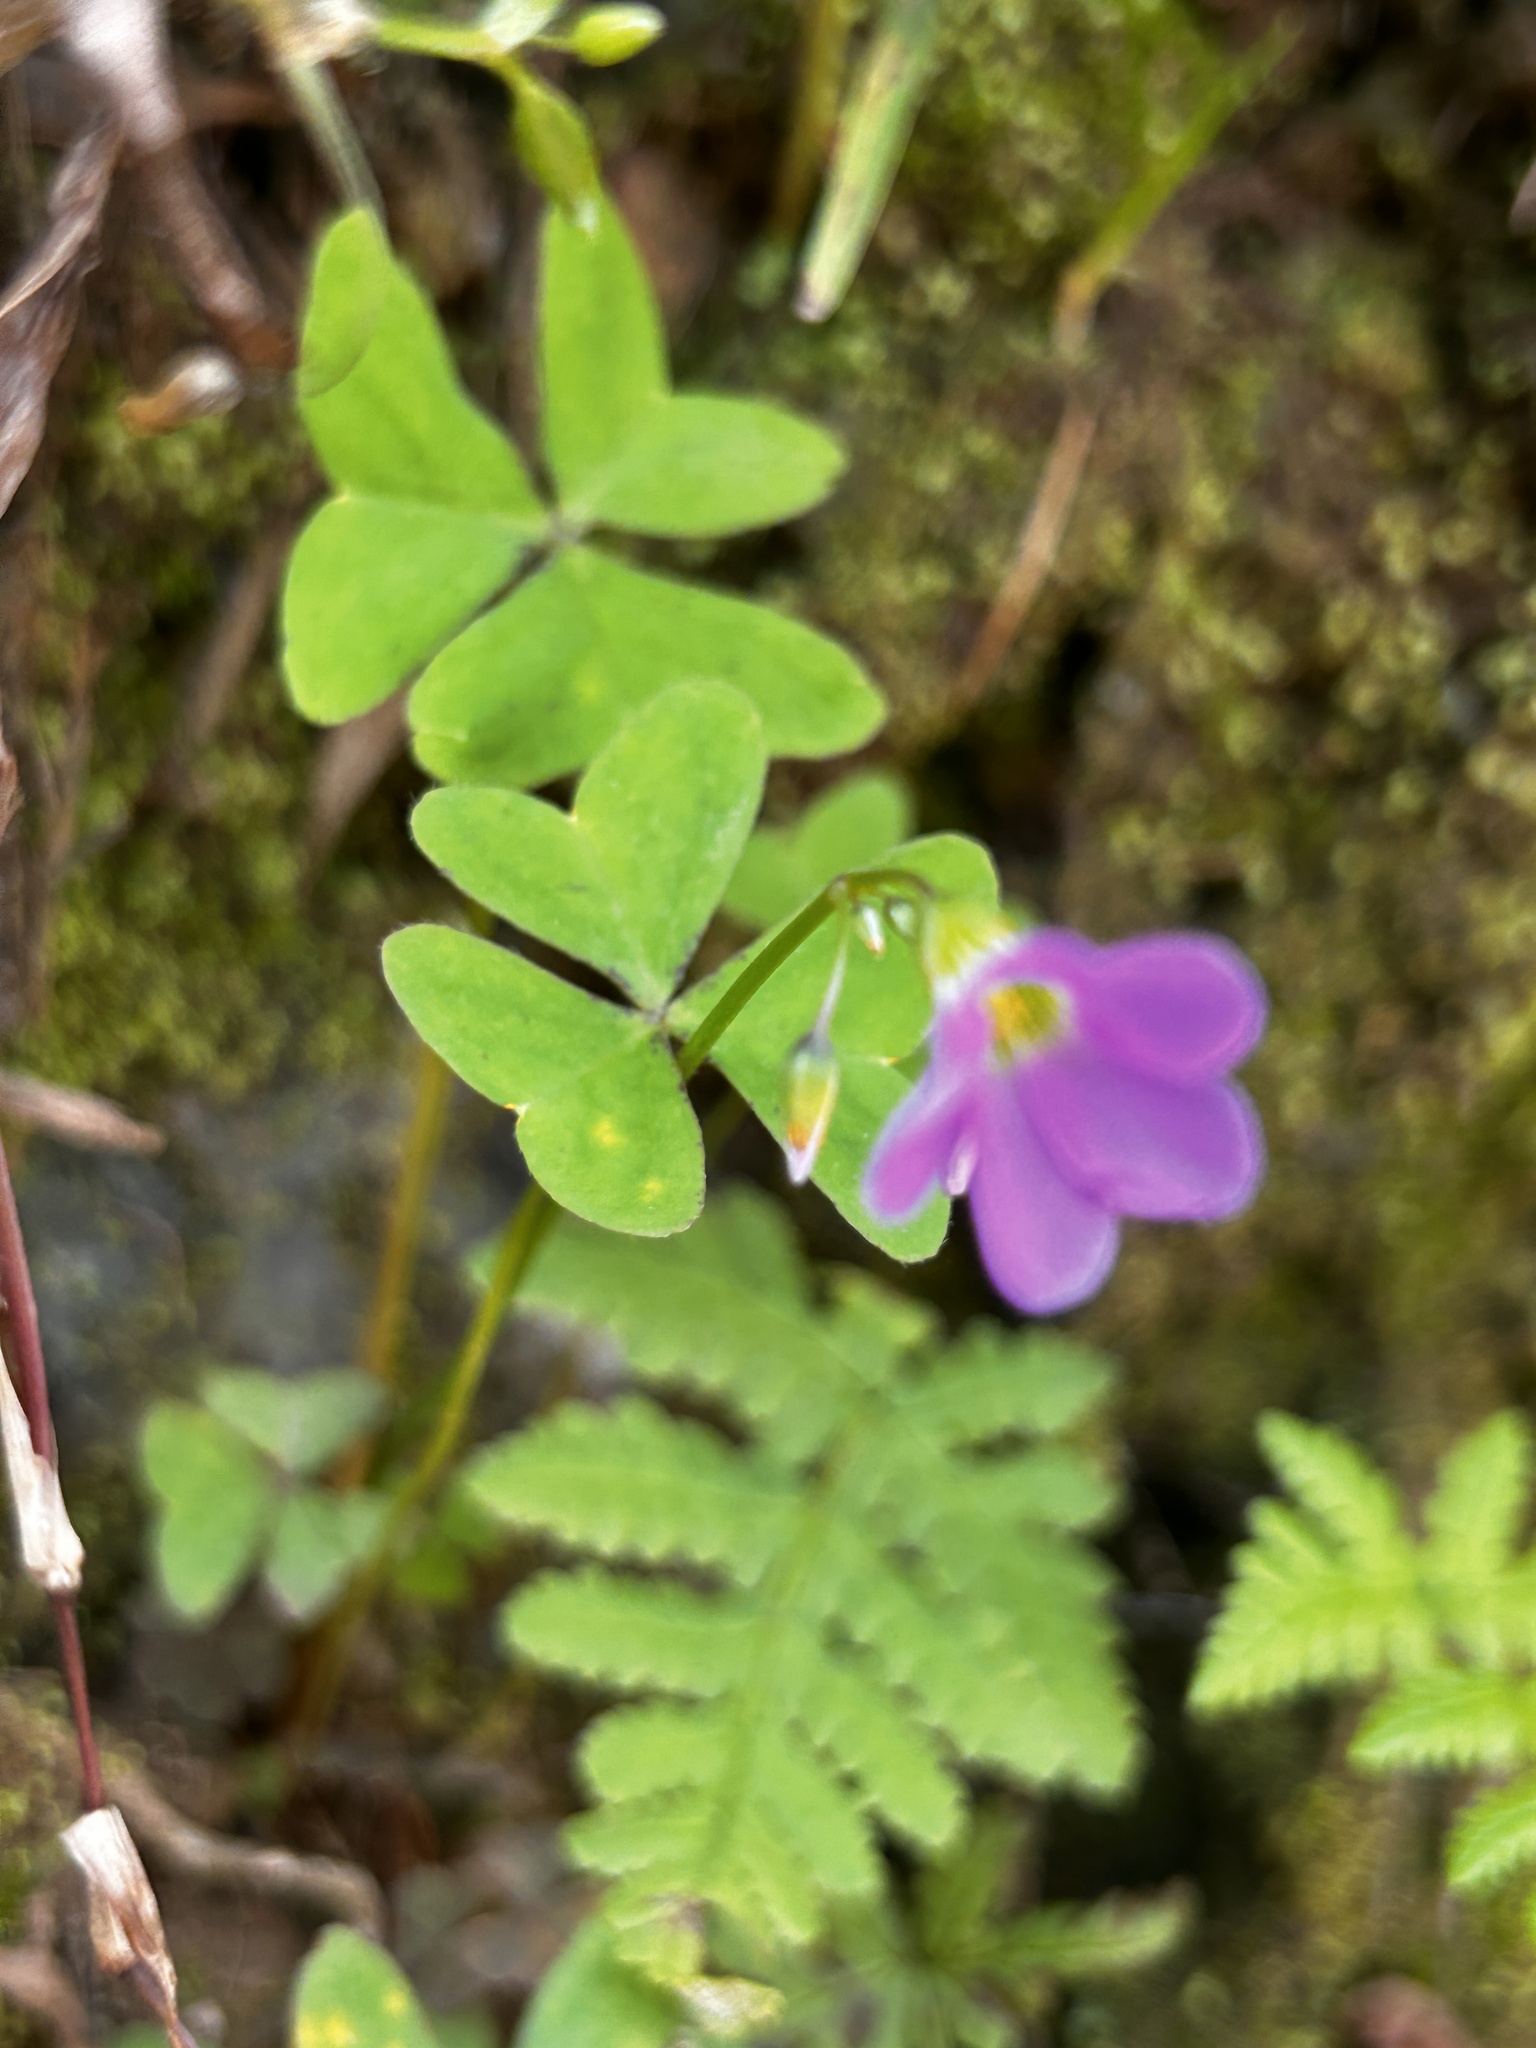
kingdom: Plantae
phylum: Tracheophyta
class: Magnoliopsida
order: Oxalidales
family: Oxalidaceae
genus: Oxalis
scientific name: Oxalis latifolia
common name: Garden pink-sorrel
